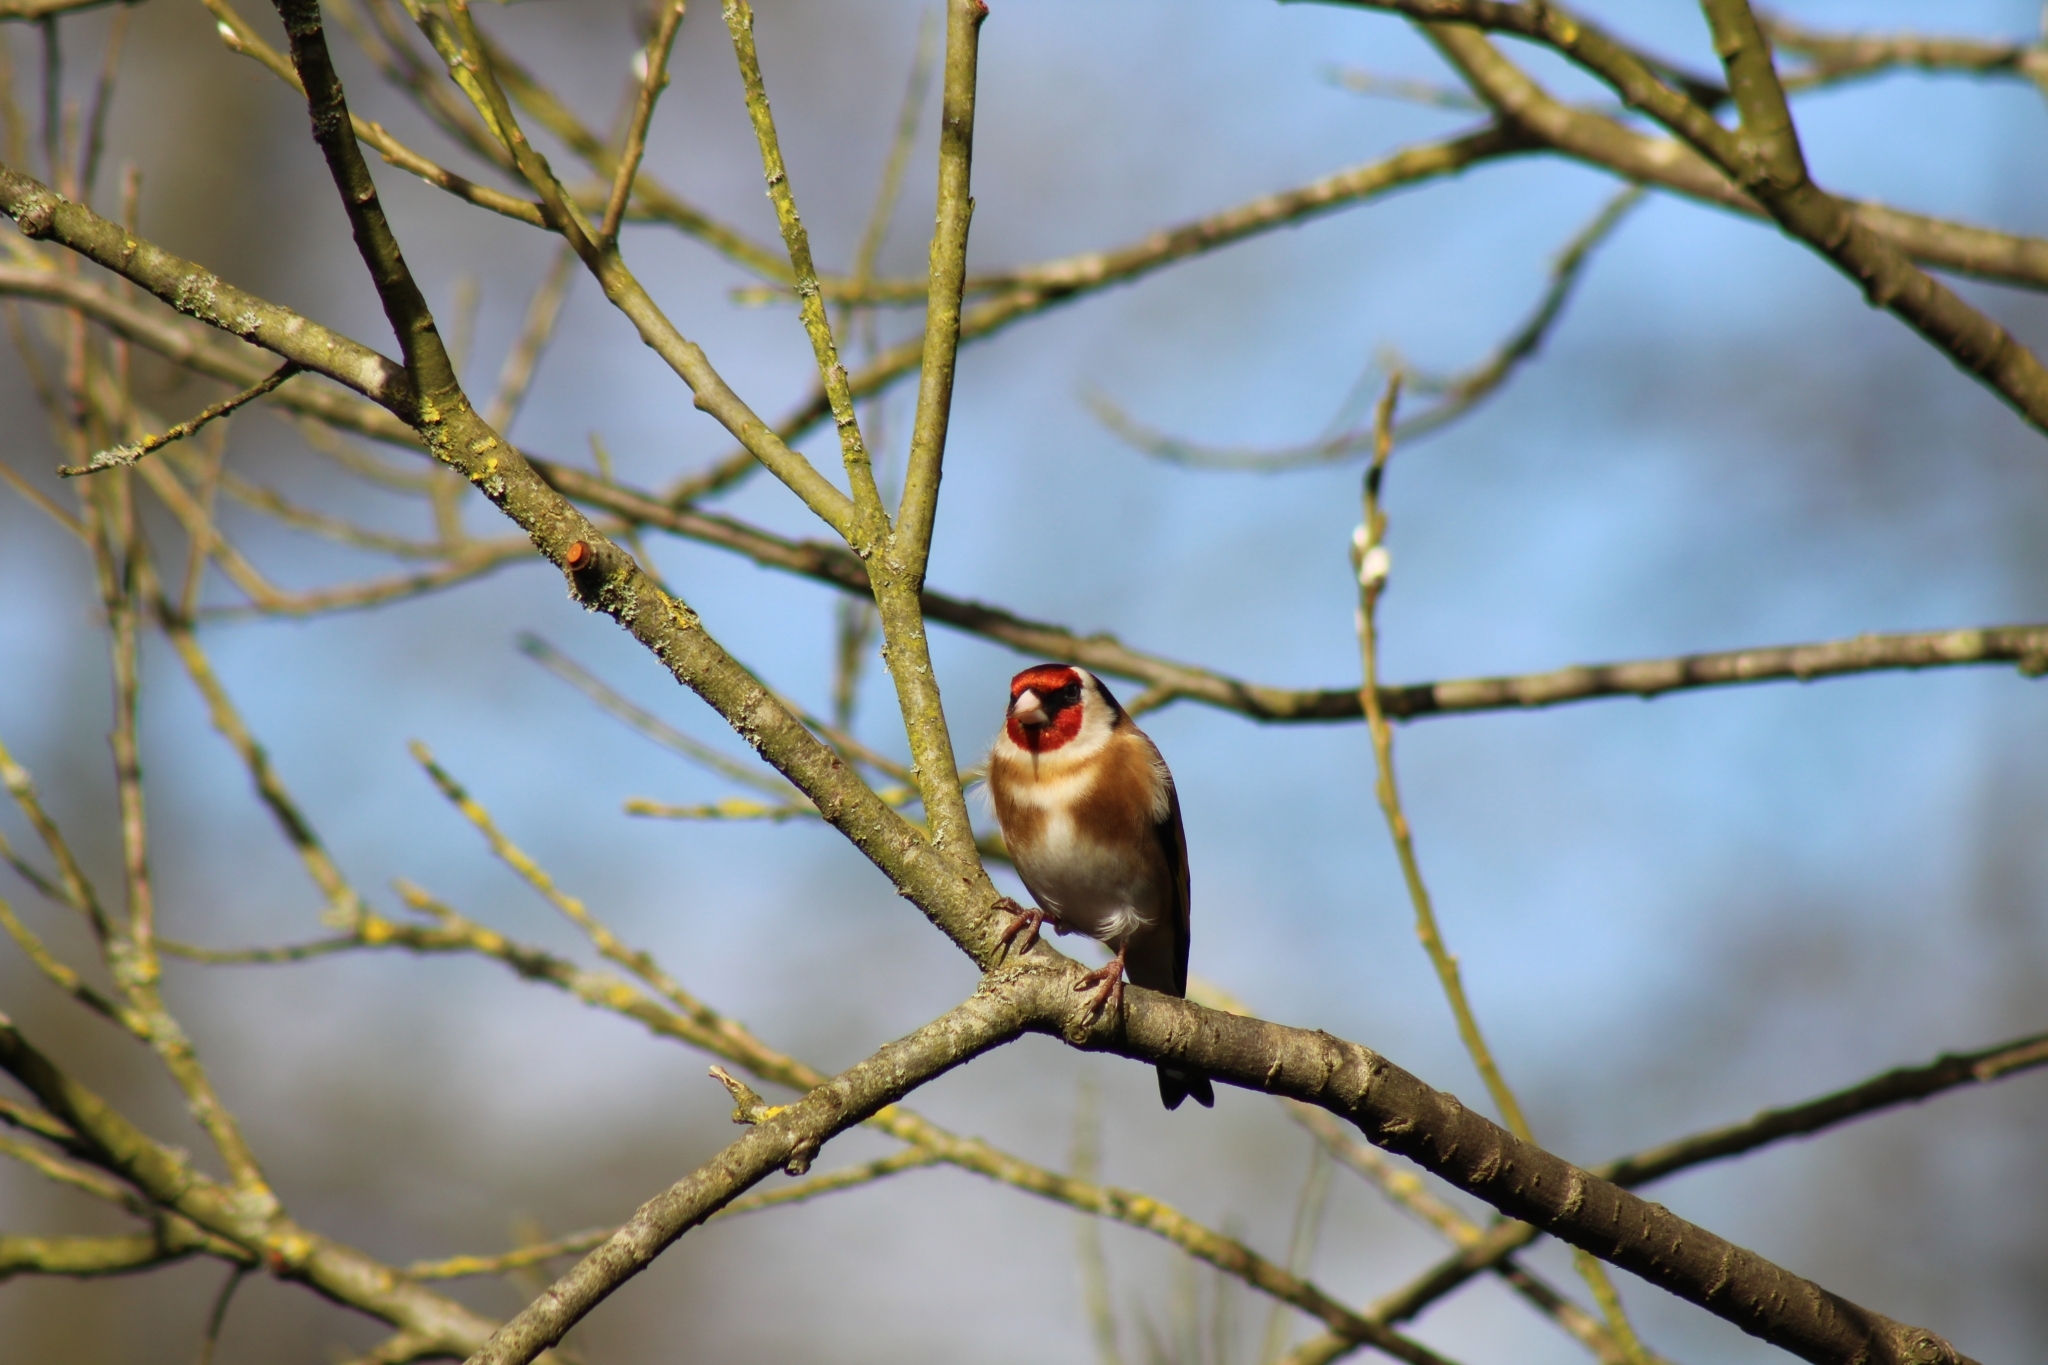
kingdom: Animalia
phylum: Chordata
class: Aves
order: Passeriformes
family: Fringillidae
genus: Carduelis
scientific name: Carduelis carduelis
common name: European goldfinch
